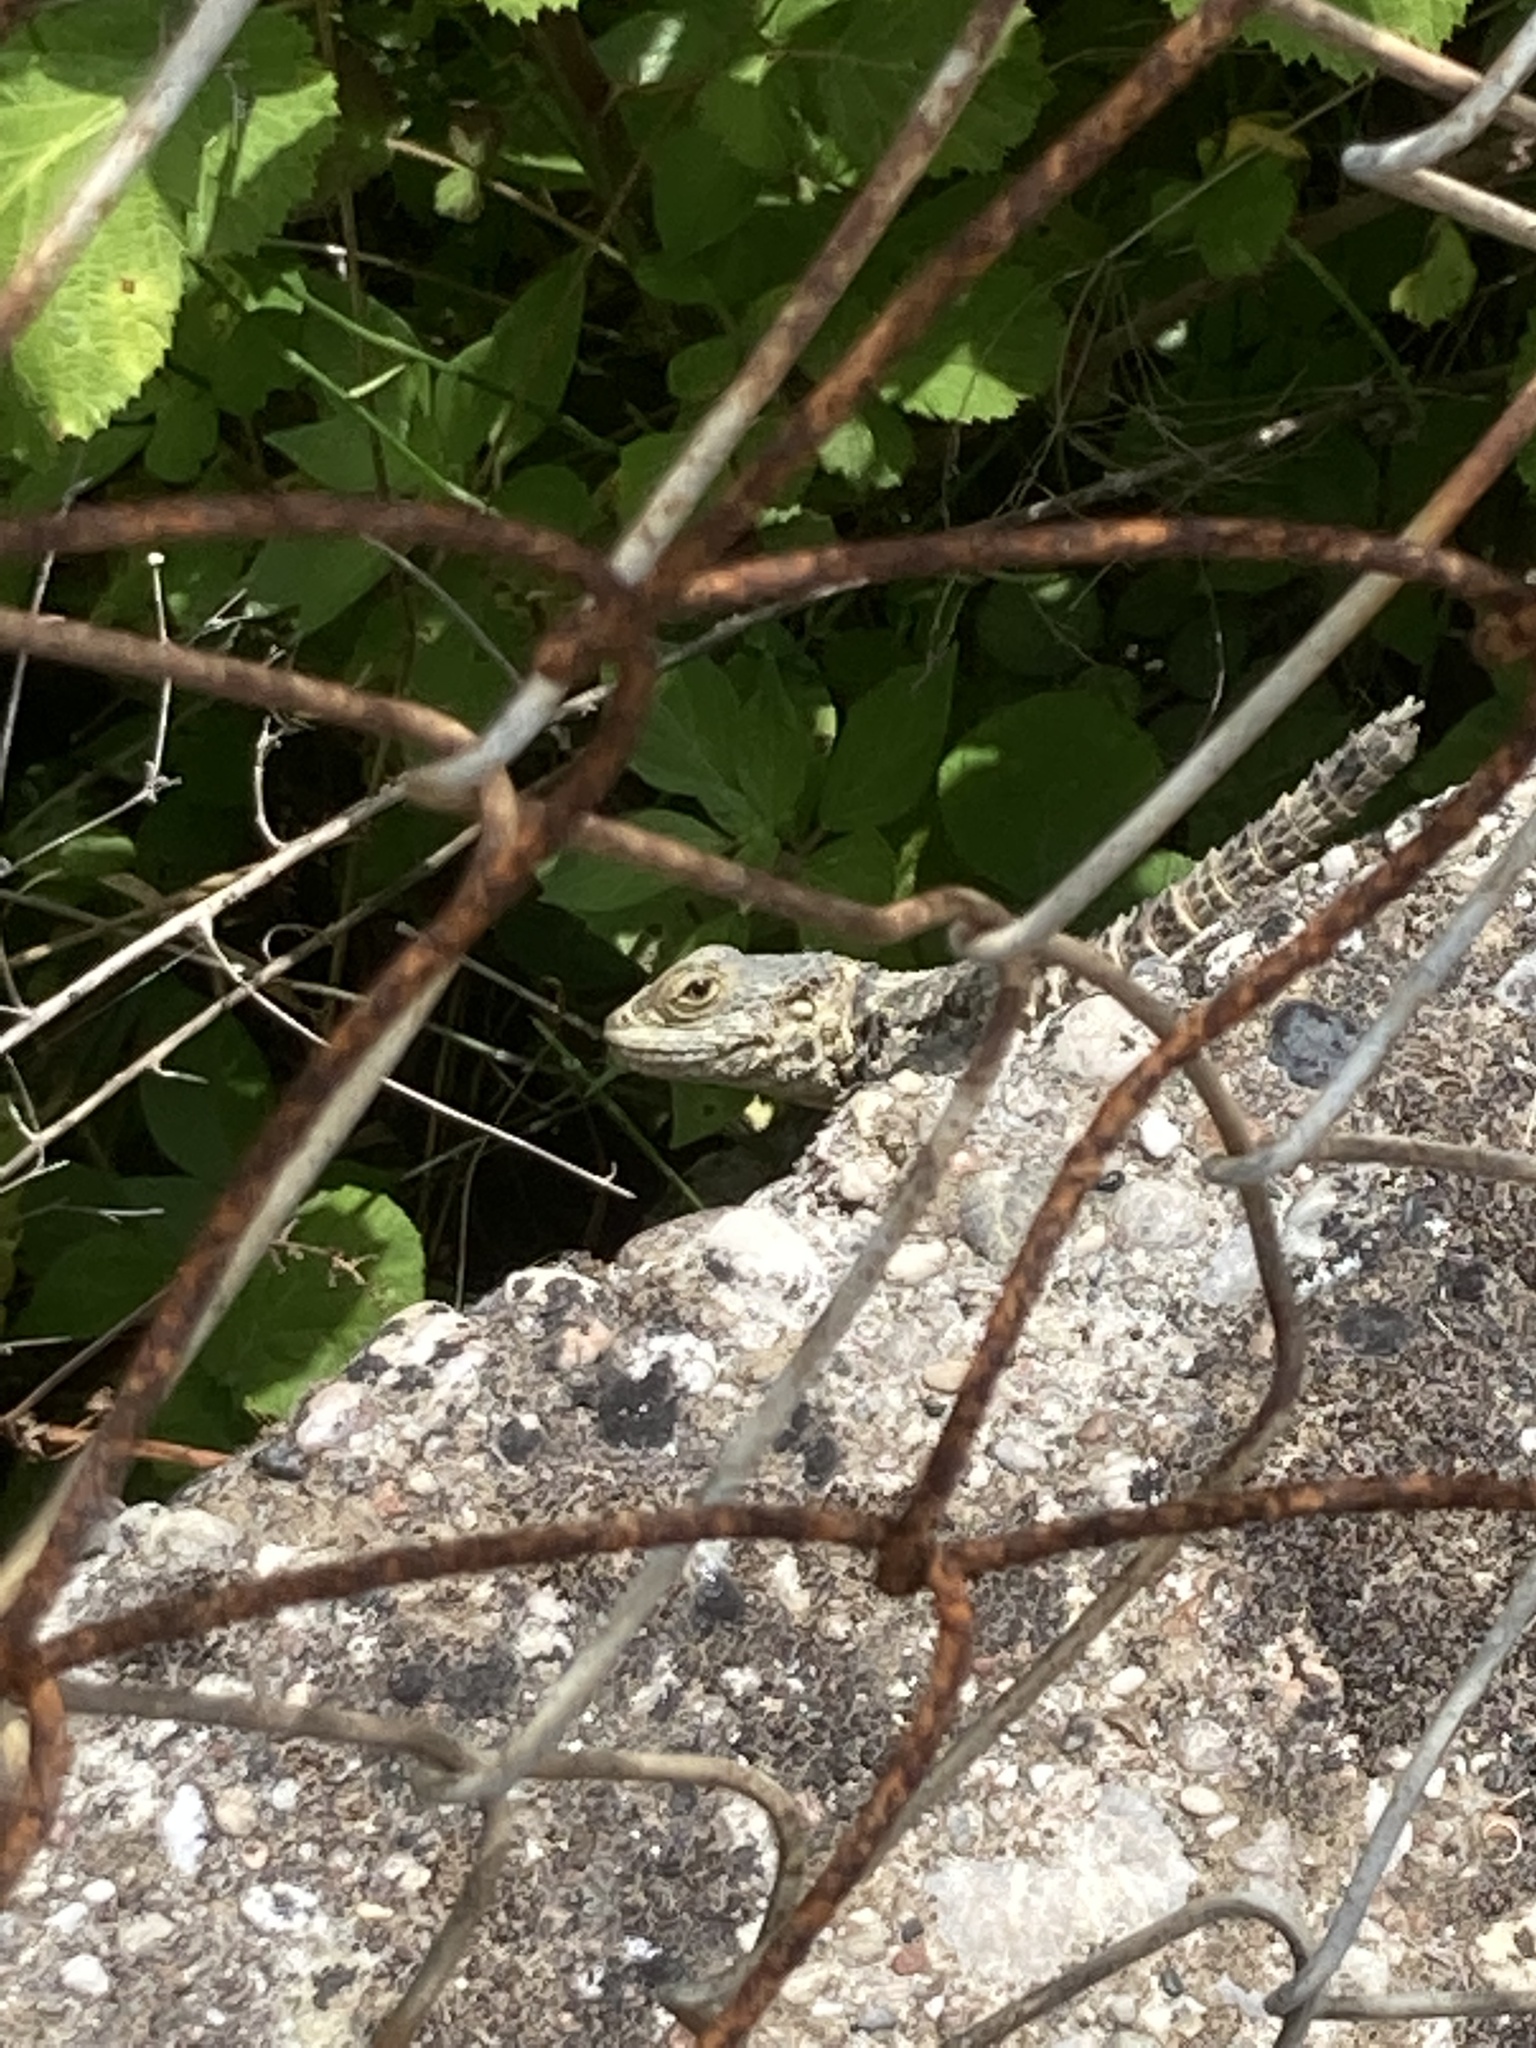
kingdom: Animalia
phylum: Chordata
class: Squamata
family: Agamidae
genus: Stellagama
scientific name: Stellagama stellio
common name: Starred agama
